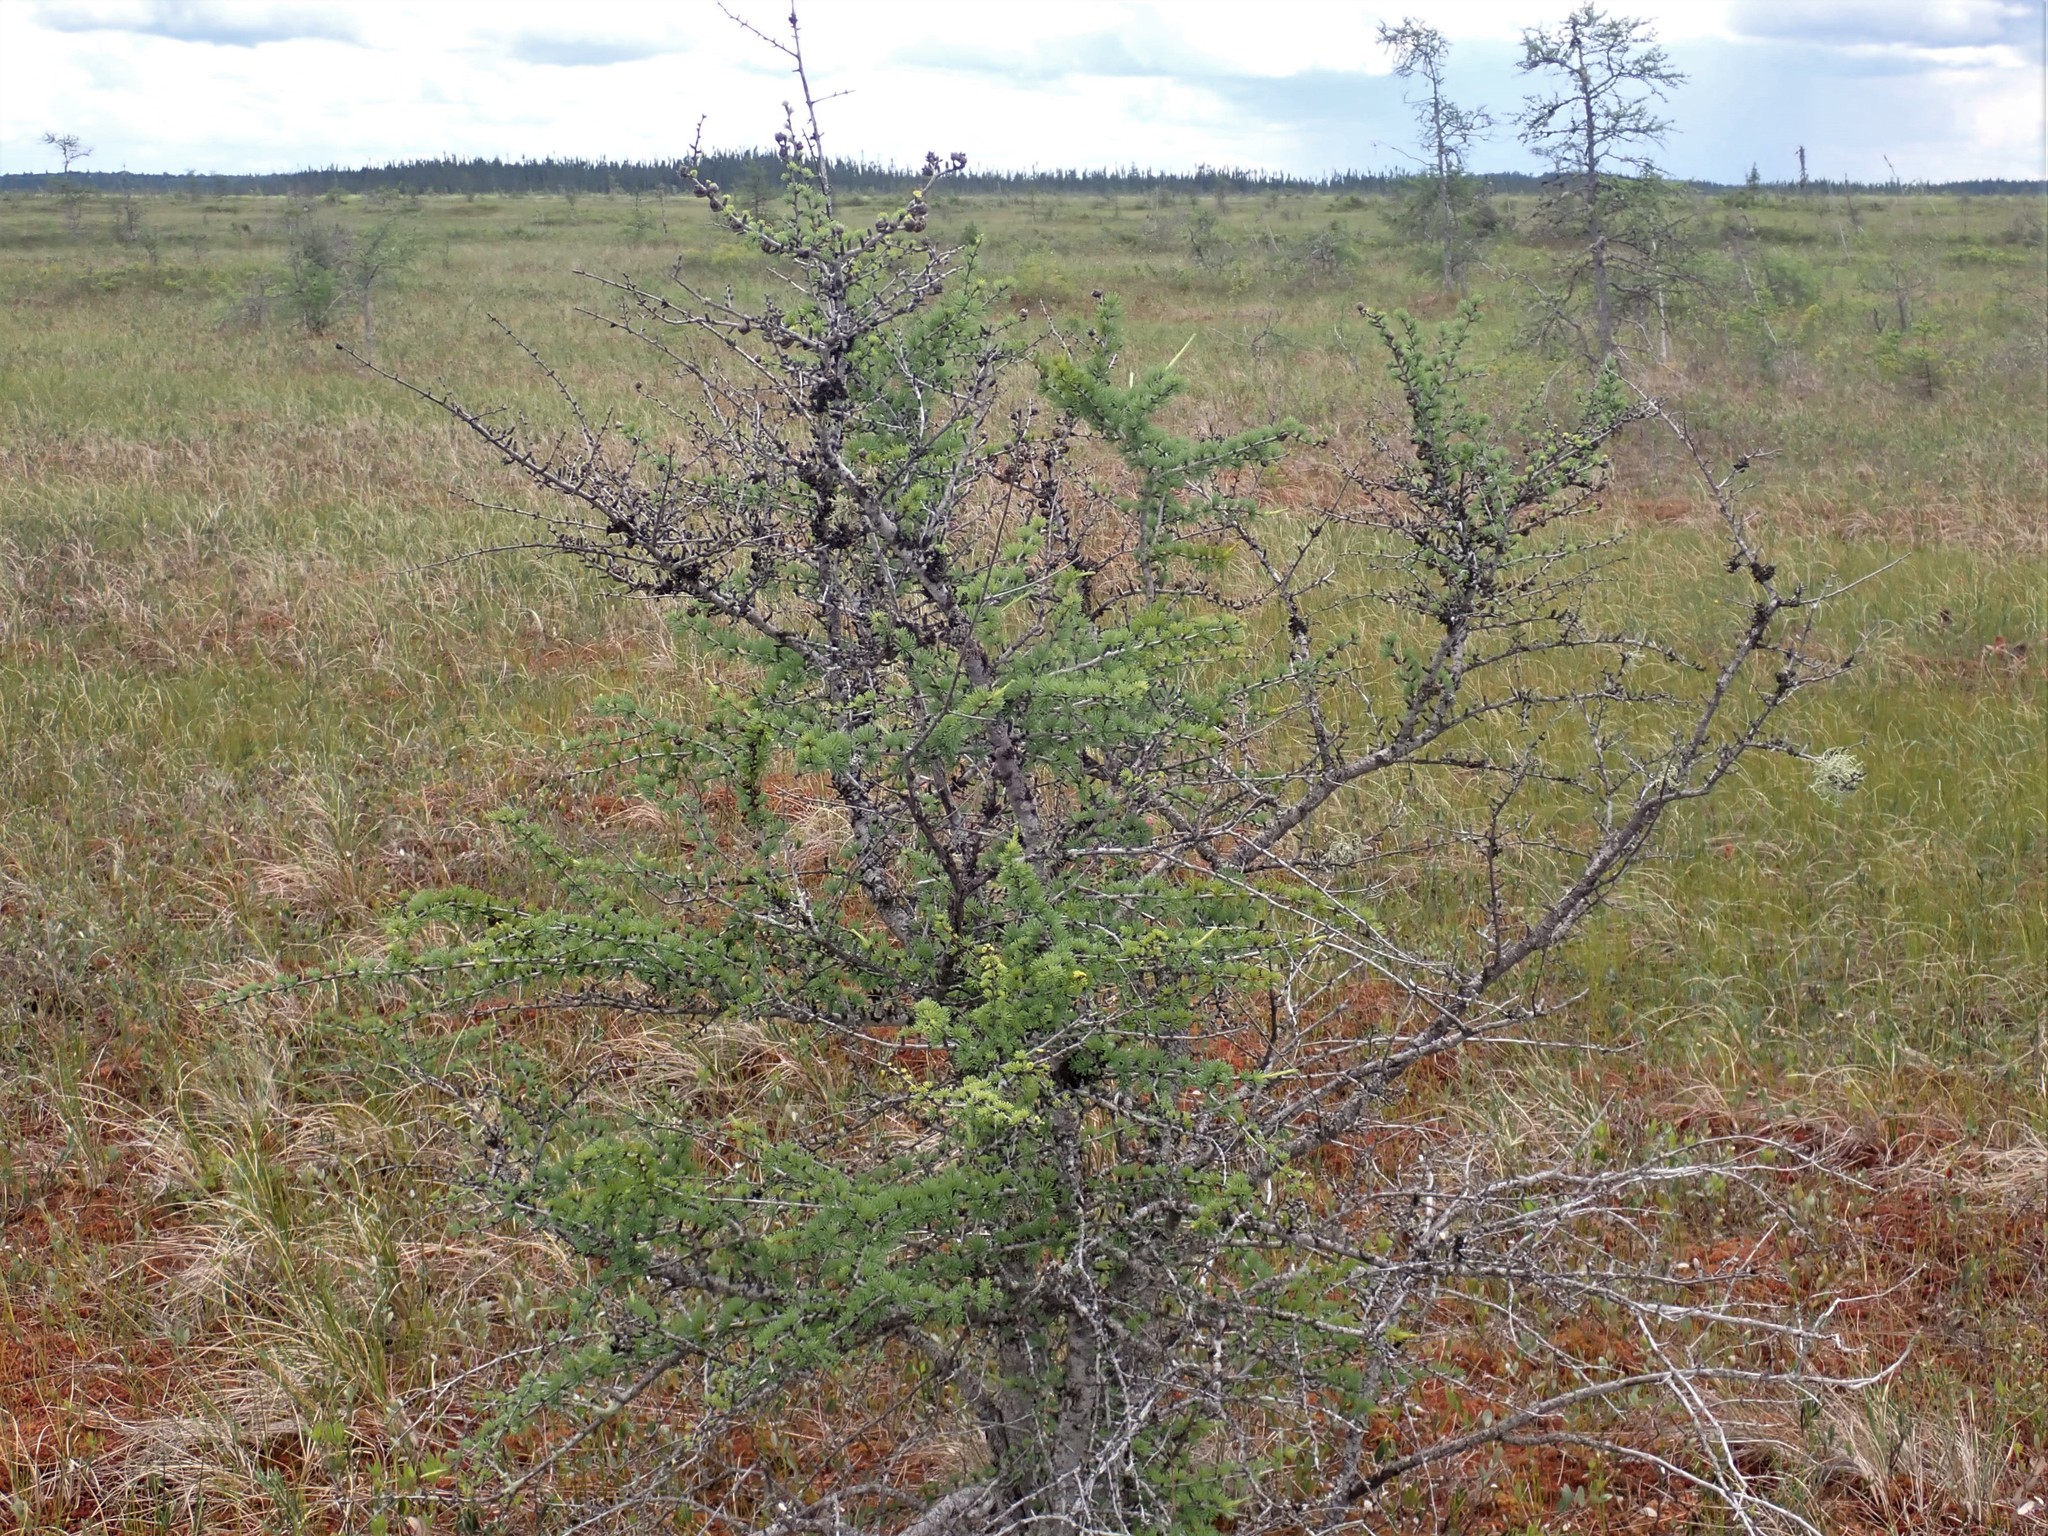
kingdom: Plantae
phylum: Tracheophyta
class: Pinopsida
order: Pinales
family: Pinaceae
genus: Larix
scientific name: Larix laricina
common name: American larch
